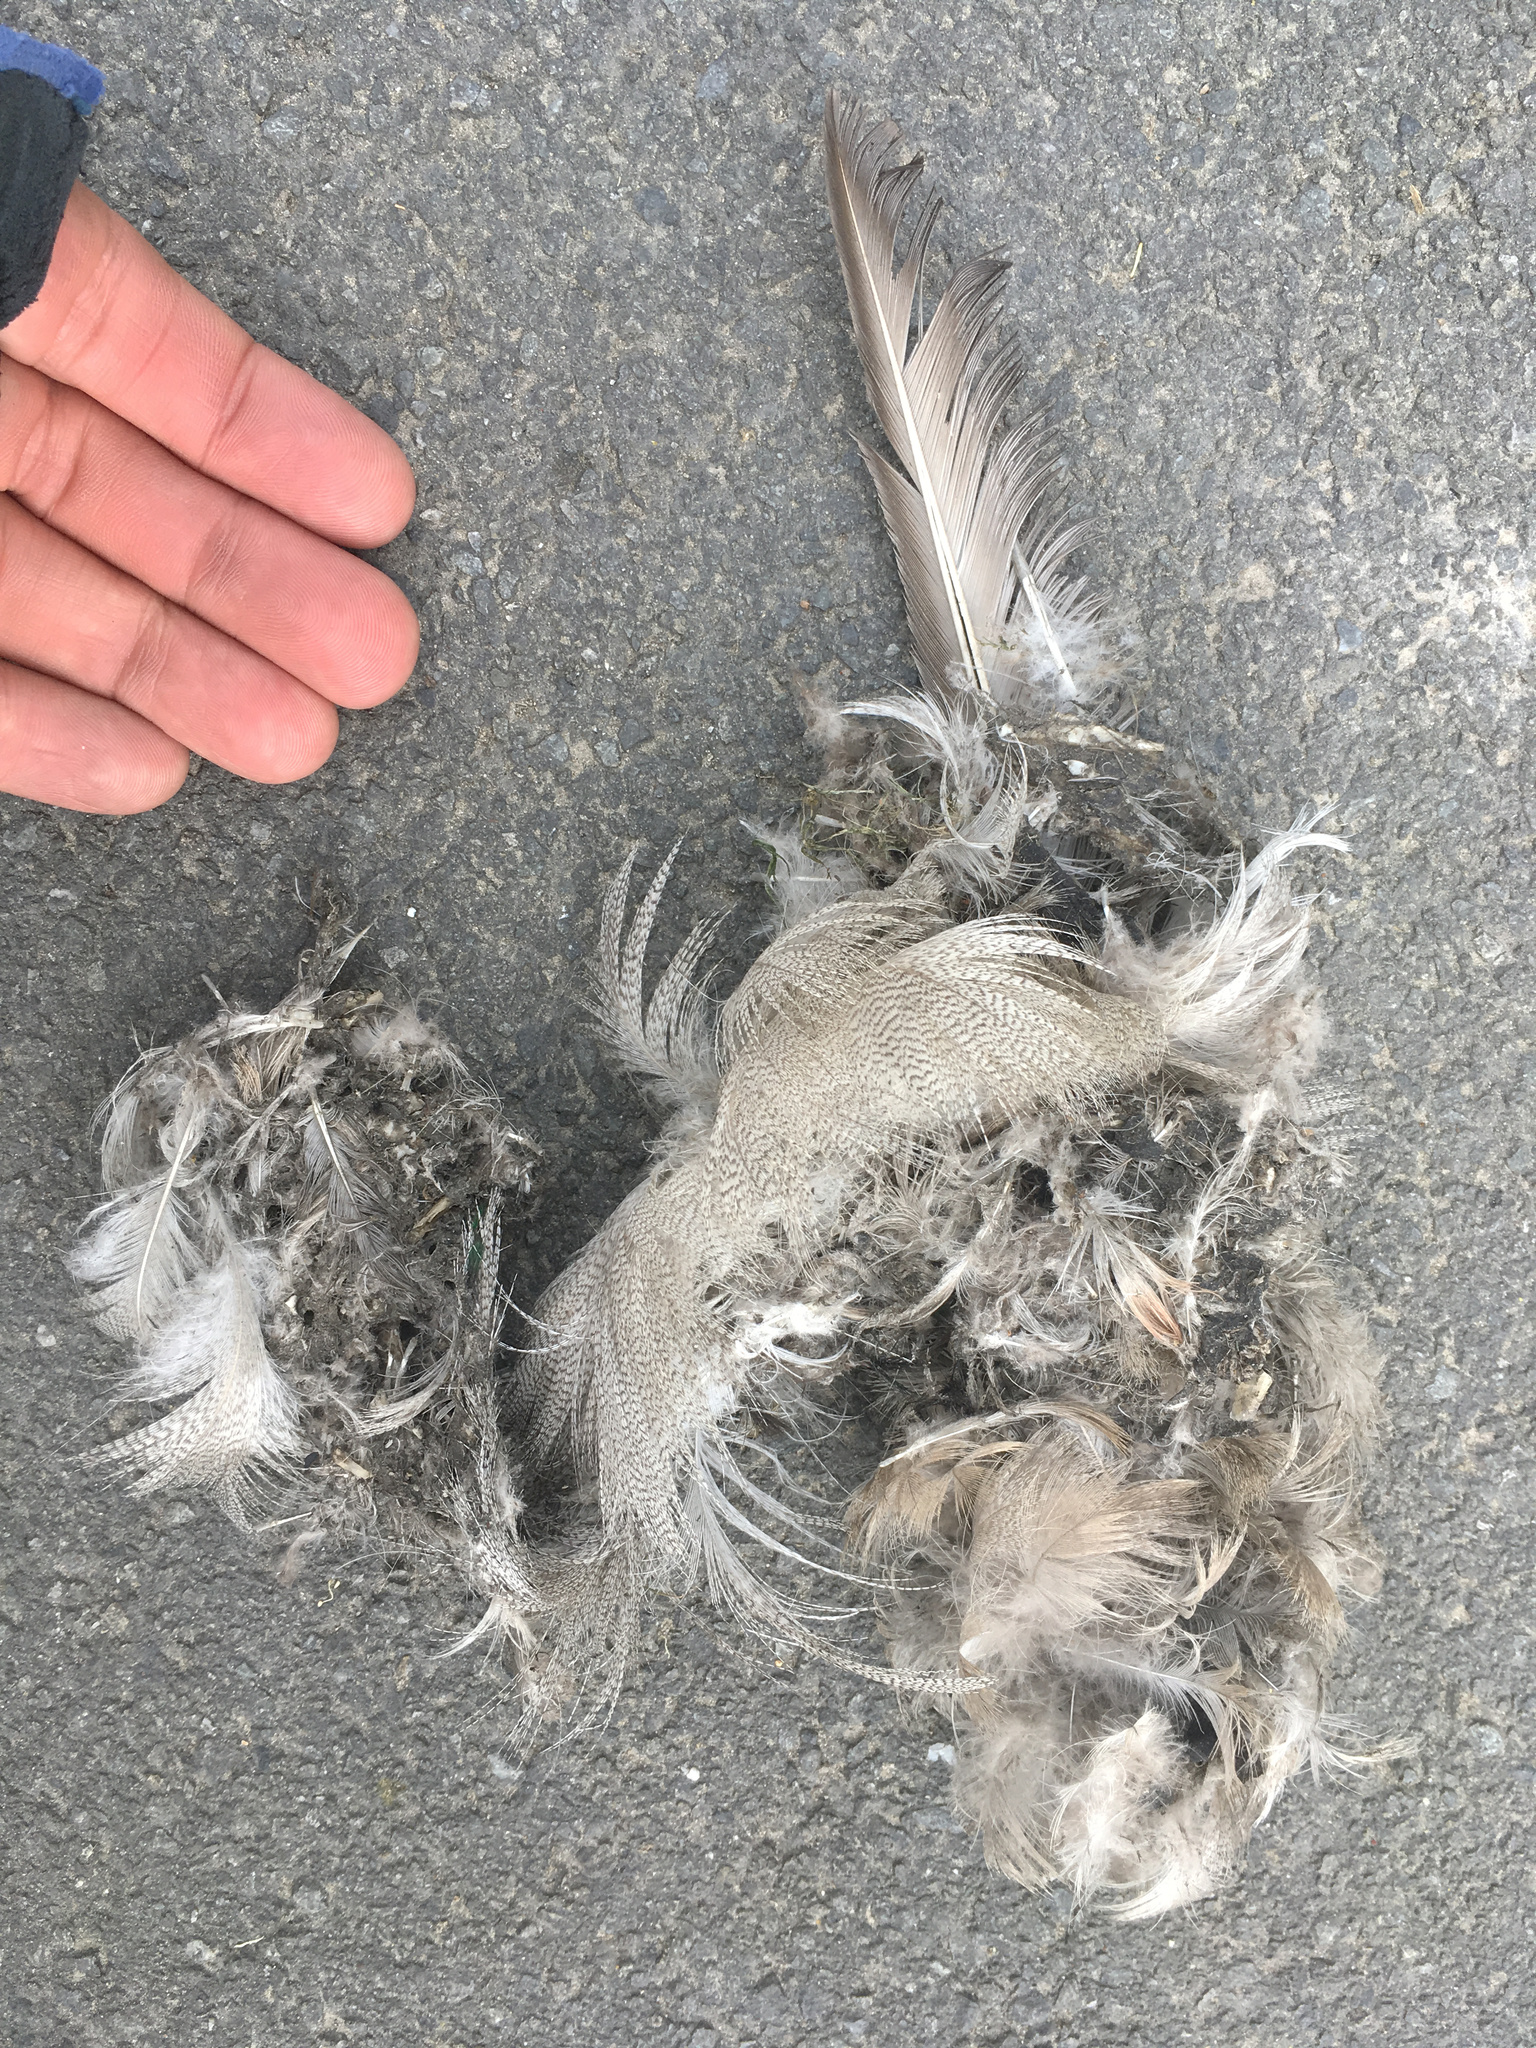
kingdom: Animalia
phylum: Chordata
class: Aves
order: Anseriformes
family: Anatidae
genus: Anas
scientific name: Anas platyrhynchos
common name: Mallard
